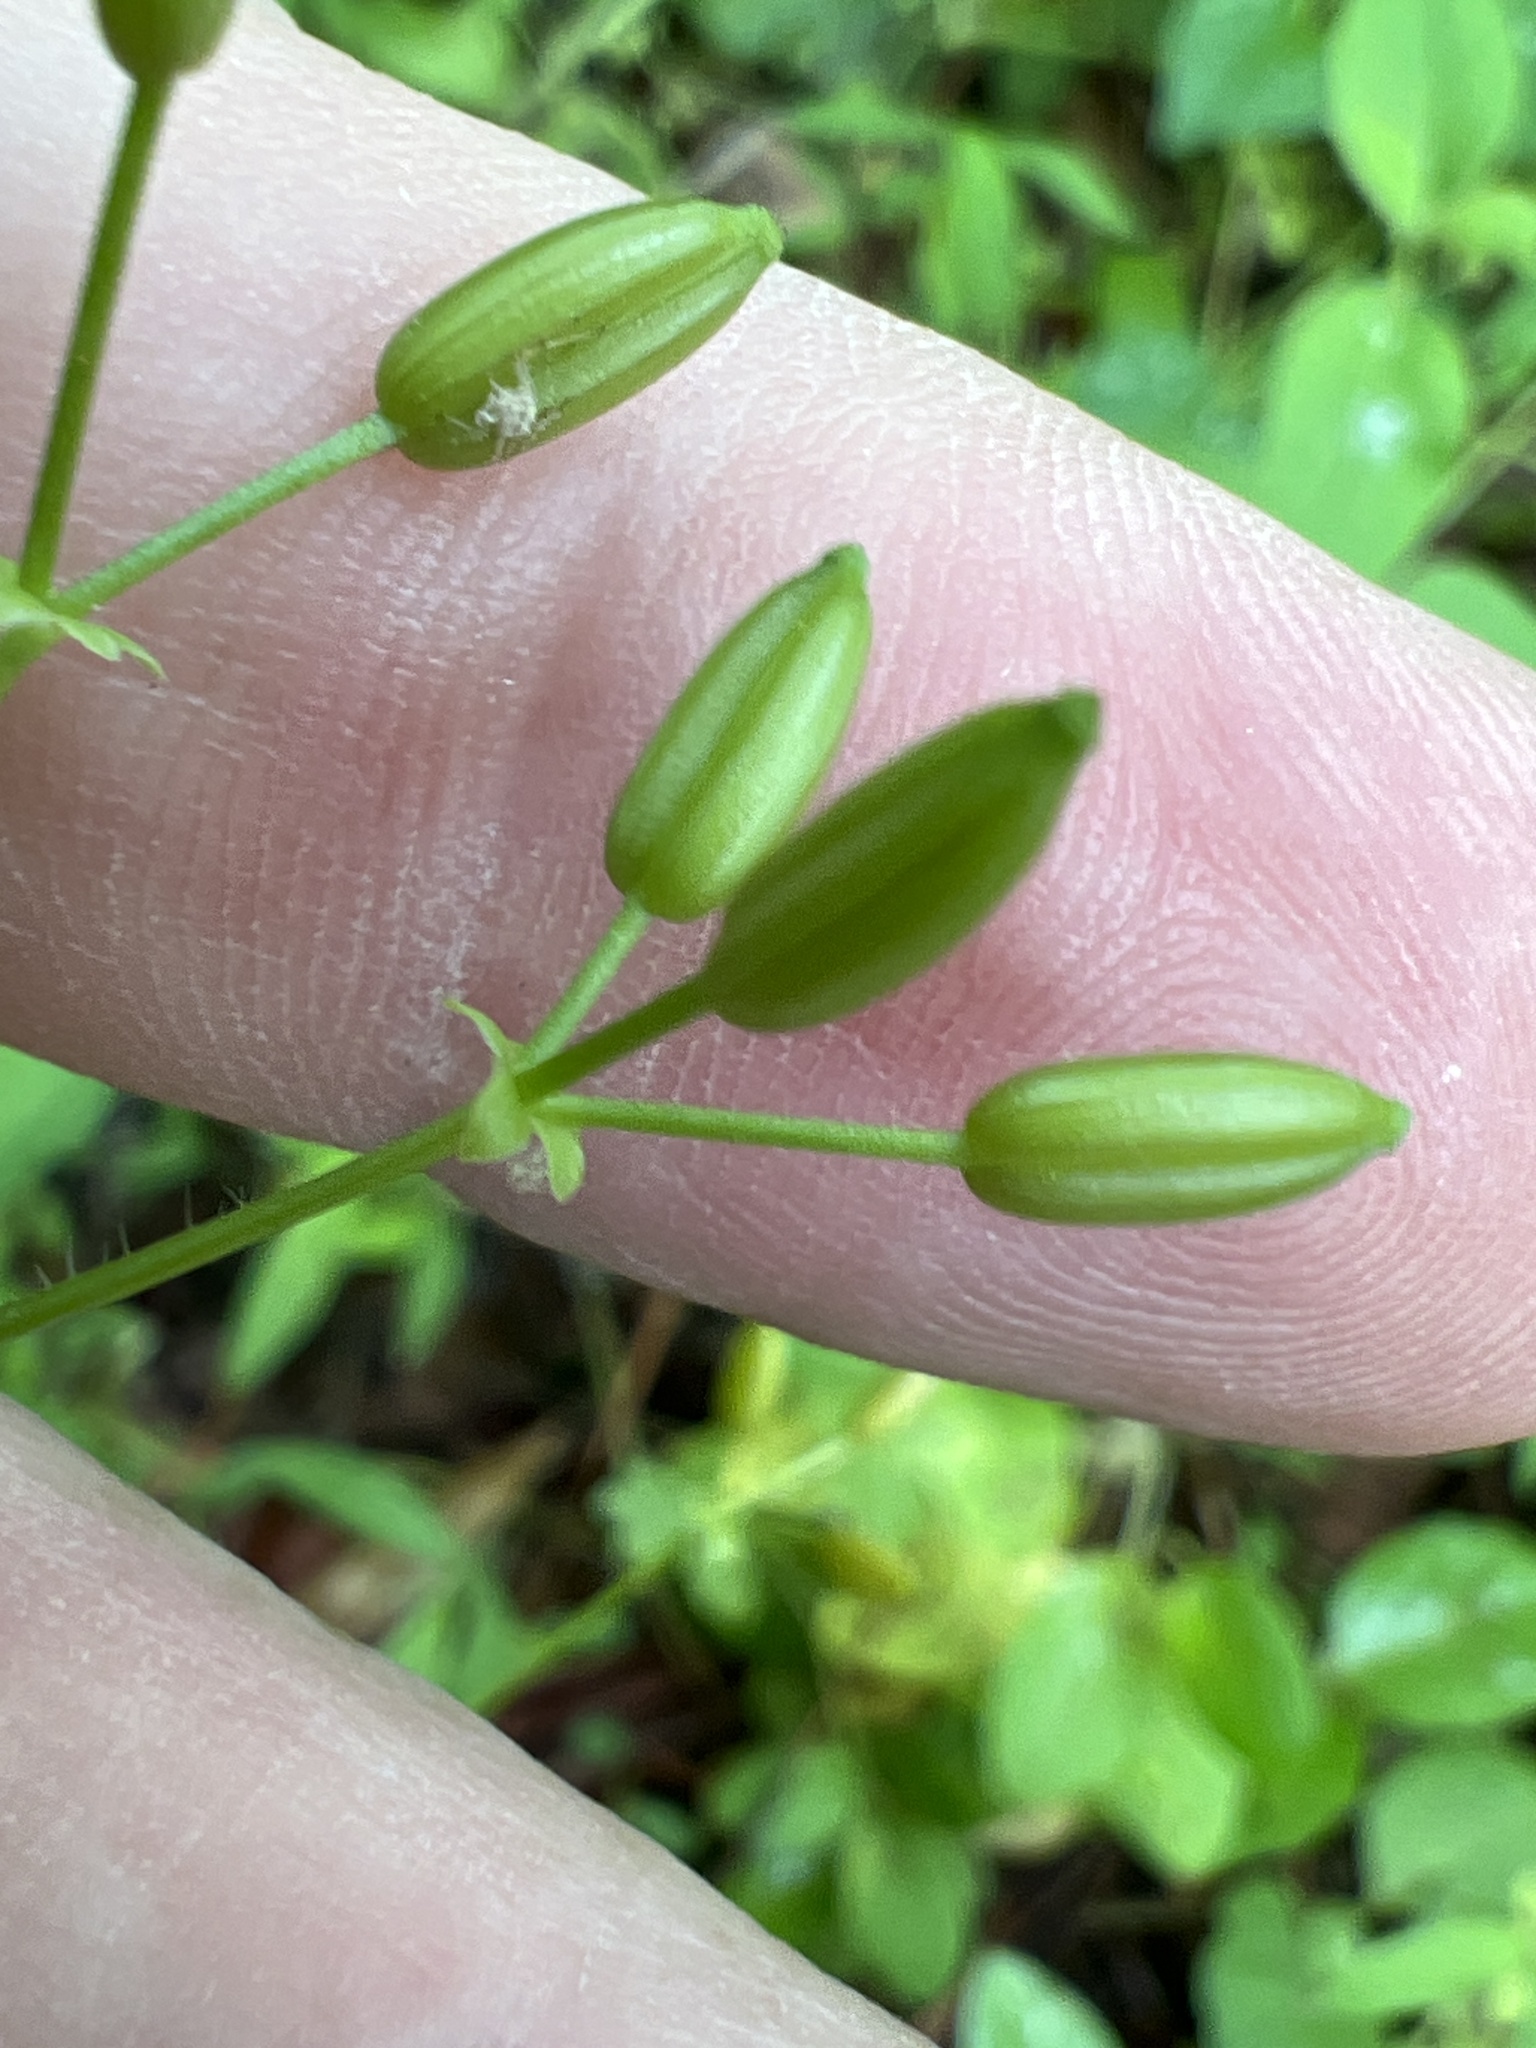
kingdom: Plantae
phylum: Tracheophyta
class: Magnoliopsida
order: Apiales
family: Apiaceae
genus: Chaerophyllum
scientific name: Chaerophyllum procumbens
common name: Spreading chervil
